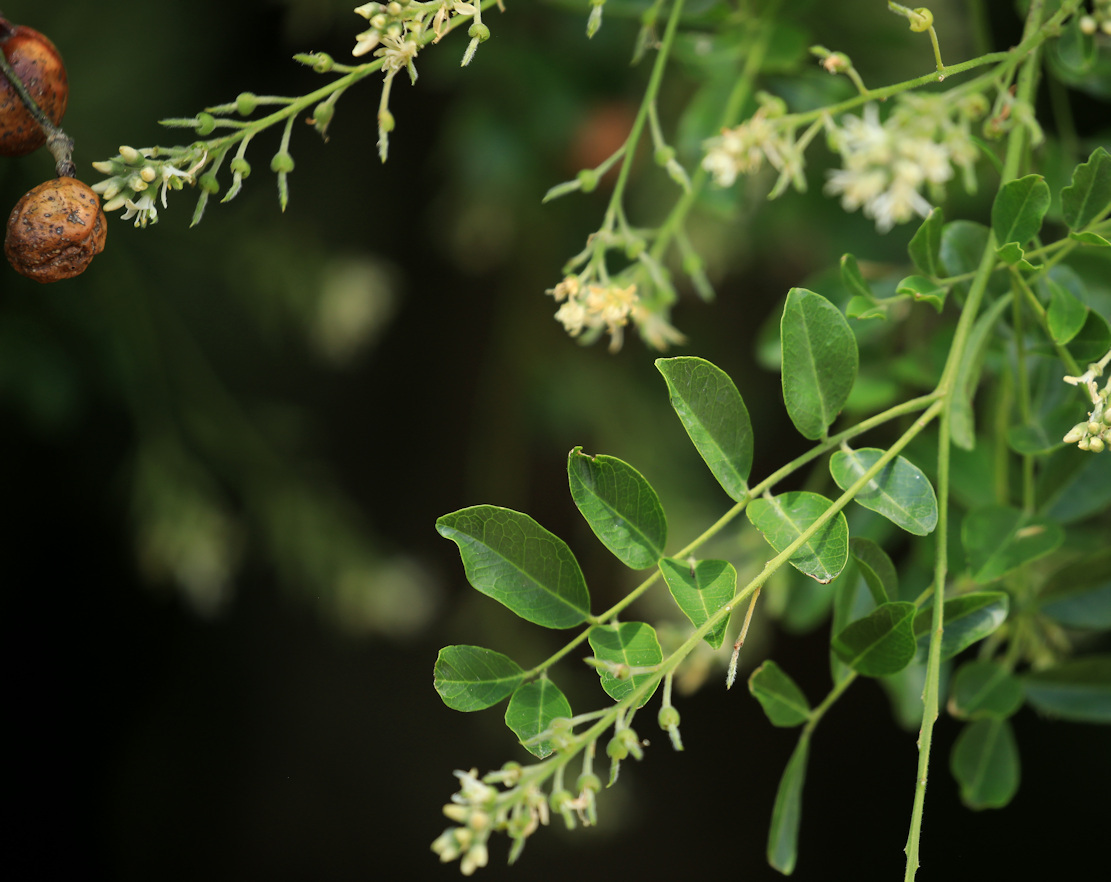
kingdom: Plantae
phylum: Tracheophyta
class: Magnoliopsida
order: Fabales
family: Fabaceae
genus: Xanthocercis
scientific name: Xanthocercis zambesiaca
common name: Nyala-tree
